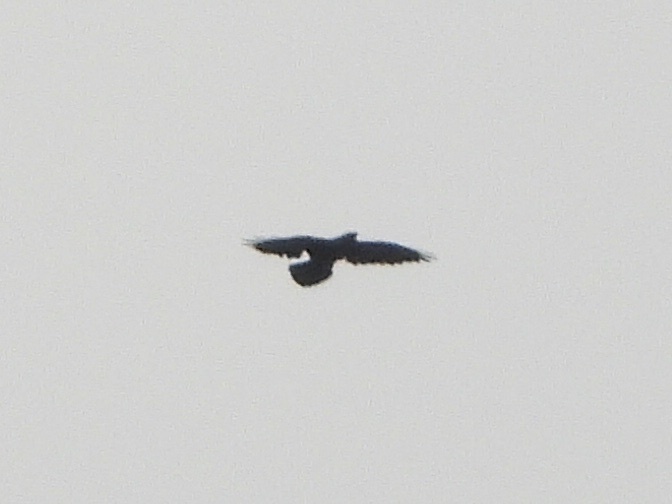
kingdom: Animalia
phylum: Chordata
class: Aves
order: Passeriformes
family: Corvidae
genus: Corvus
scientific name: Corvus corax
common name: Common raven
